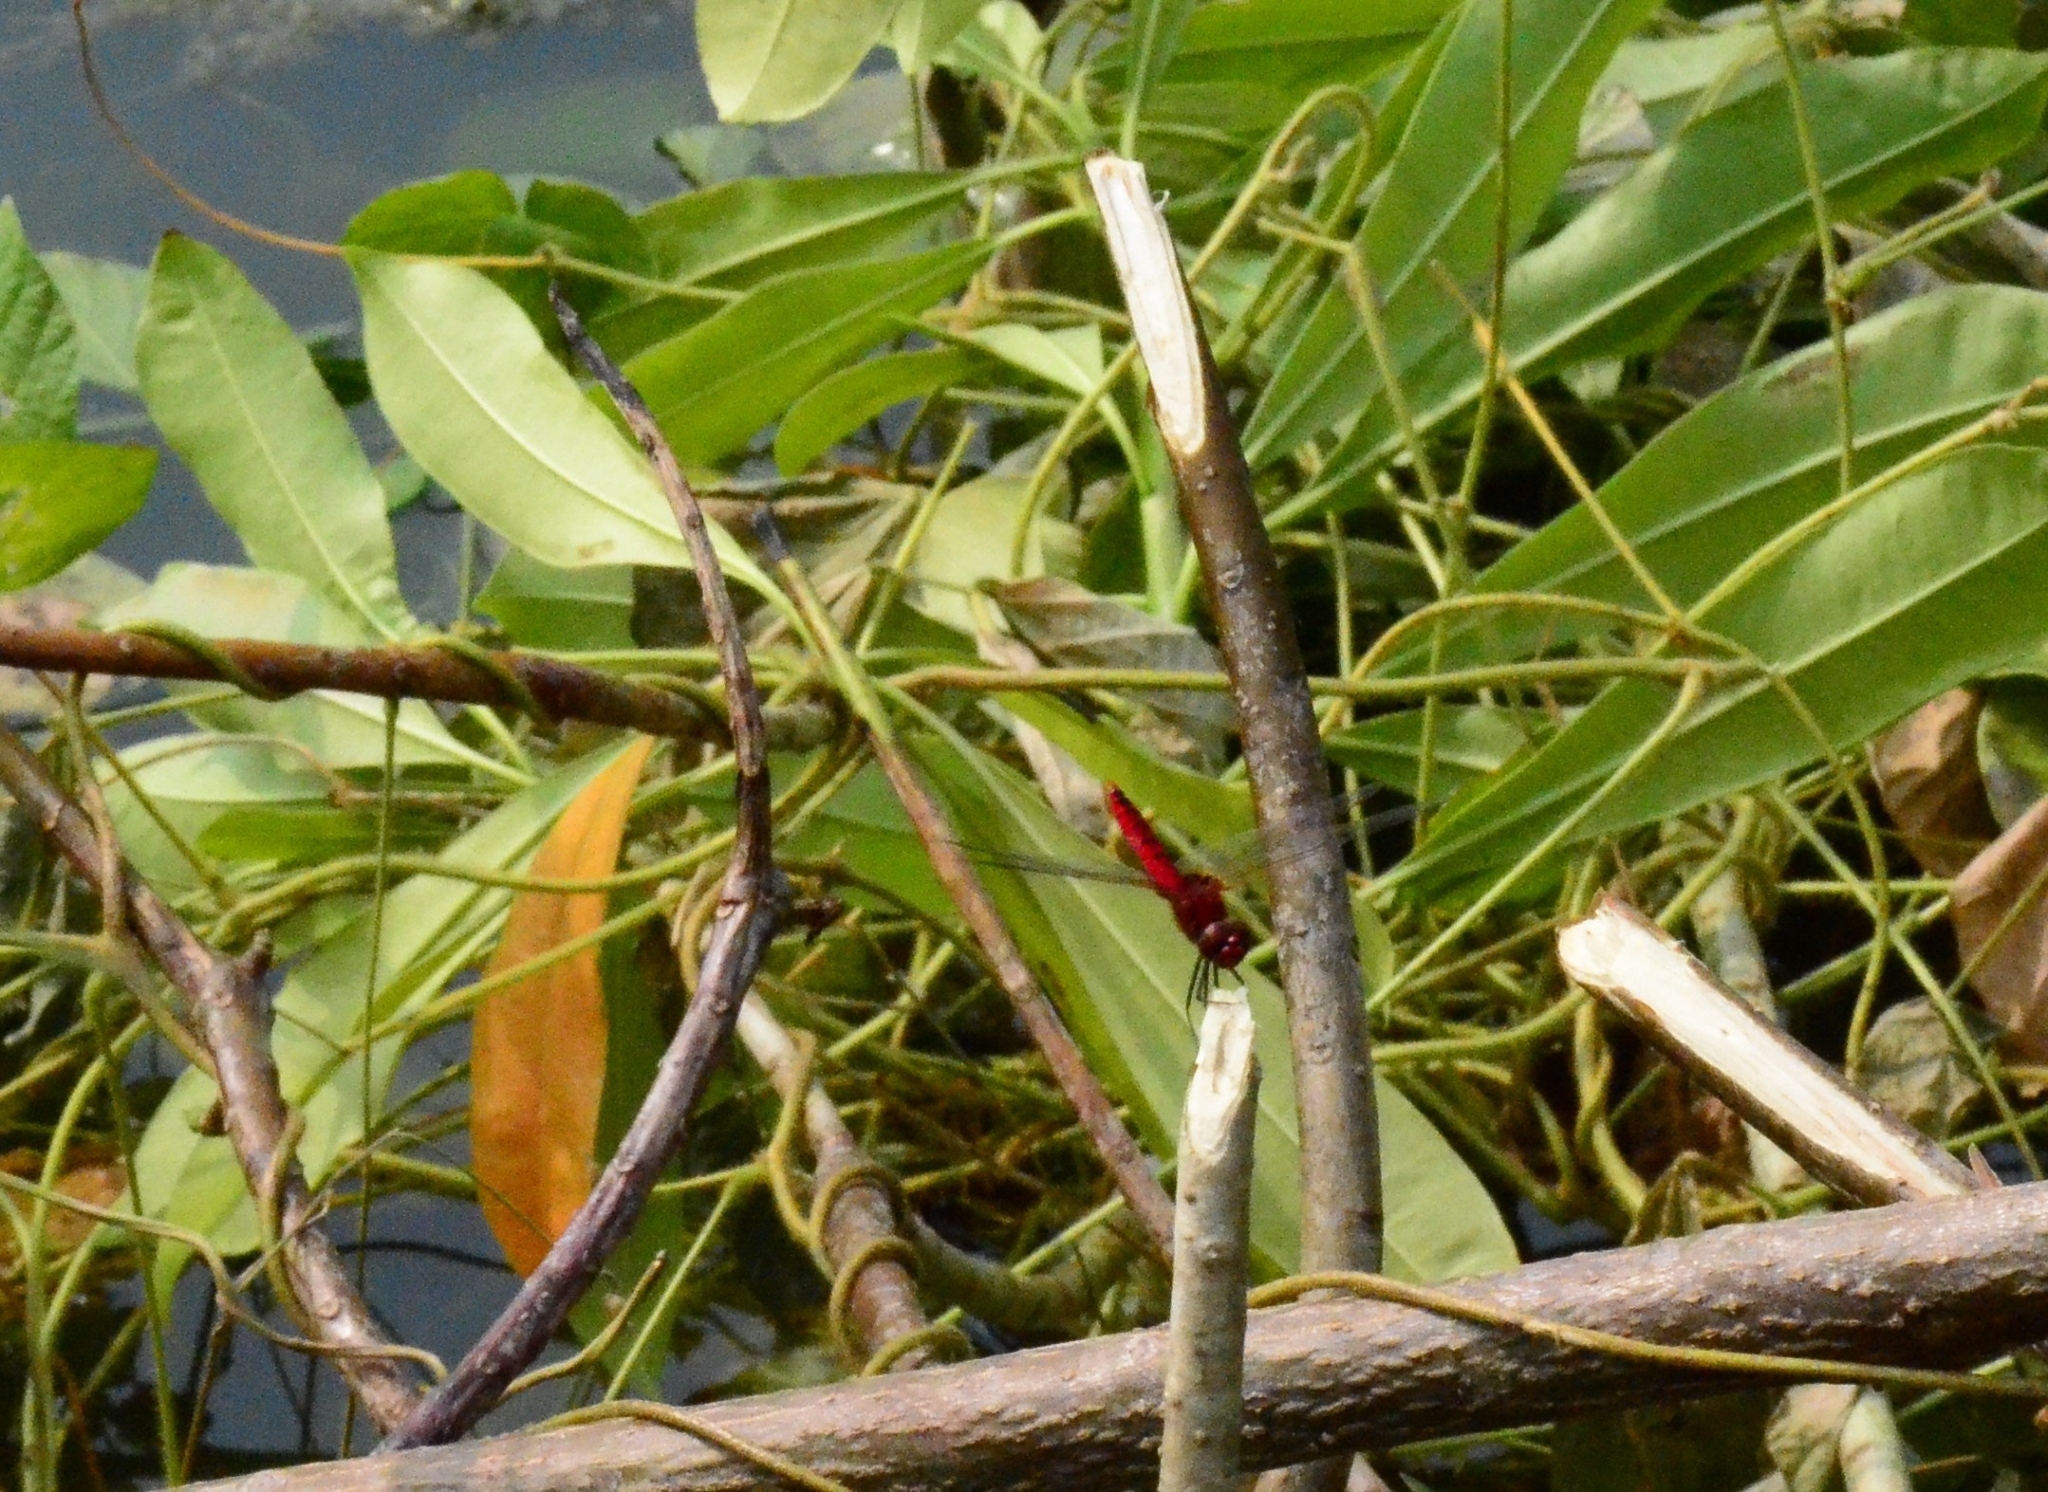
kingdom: Animalia
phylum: Arthropoda
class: Insecta
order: Odonata
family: Libellulidae
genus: Urothemis
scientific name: Urothemis signata
